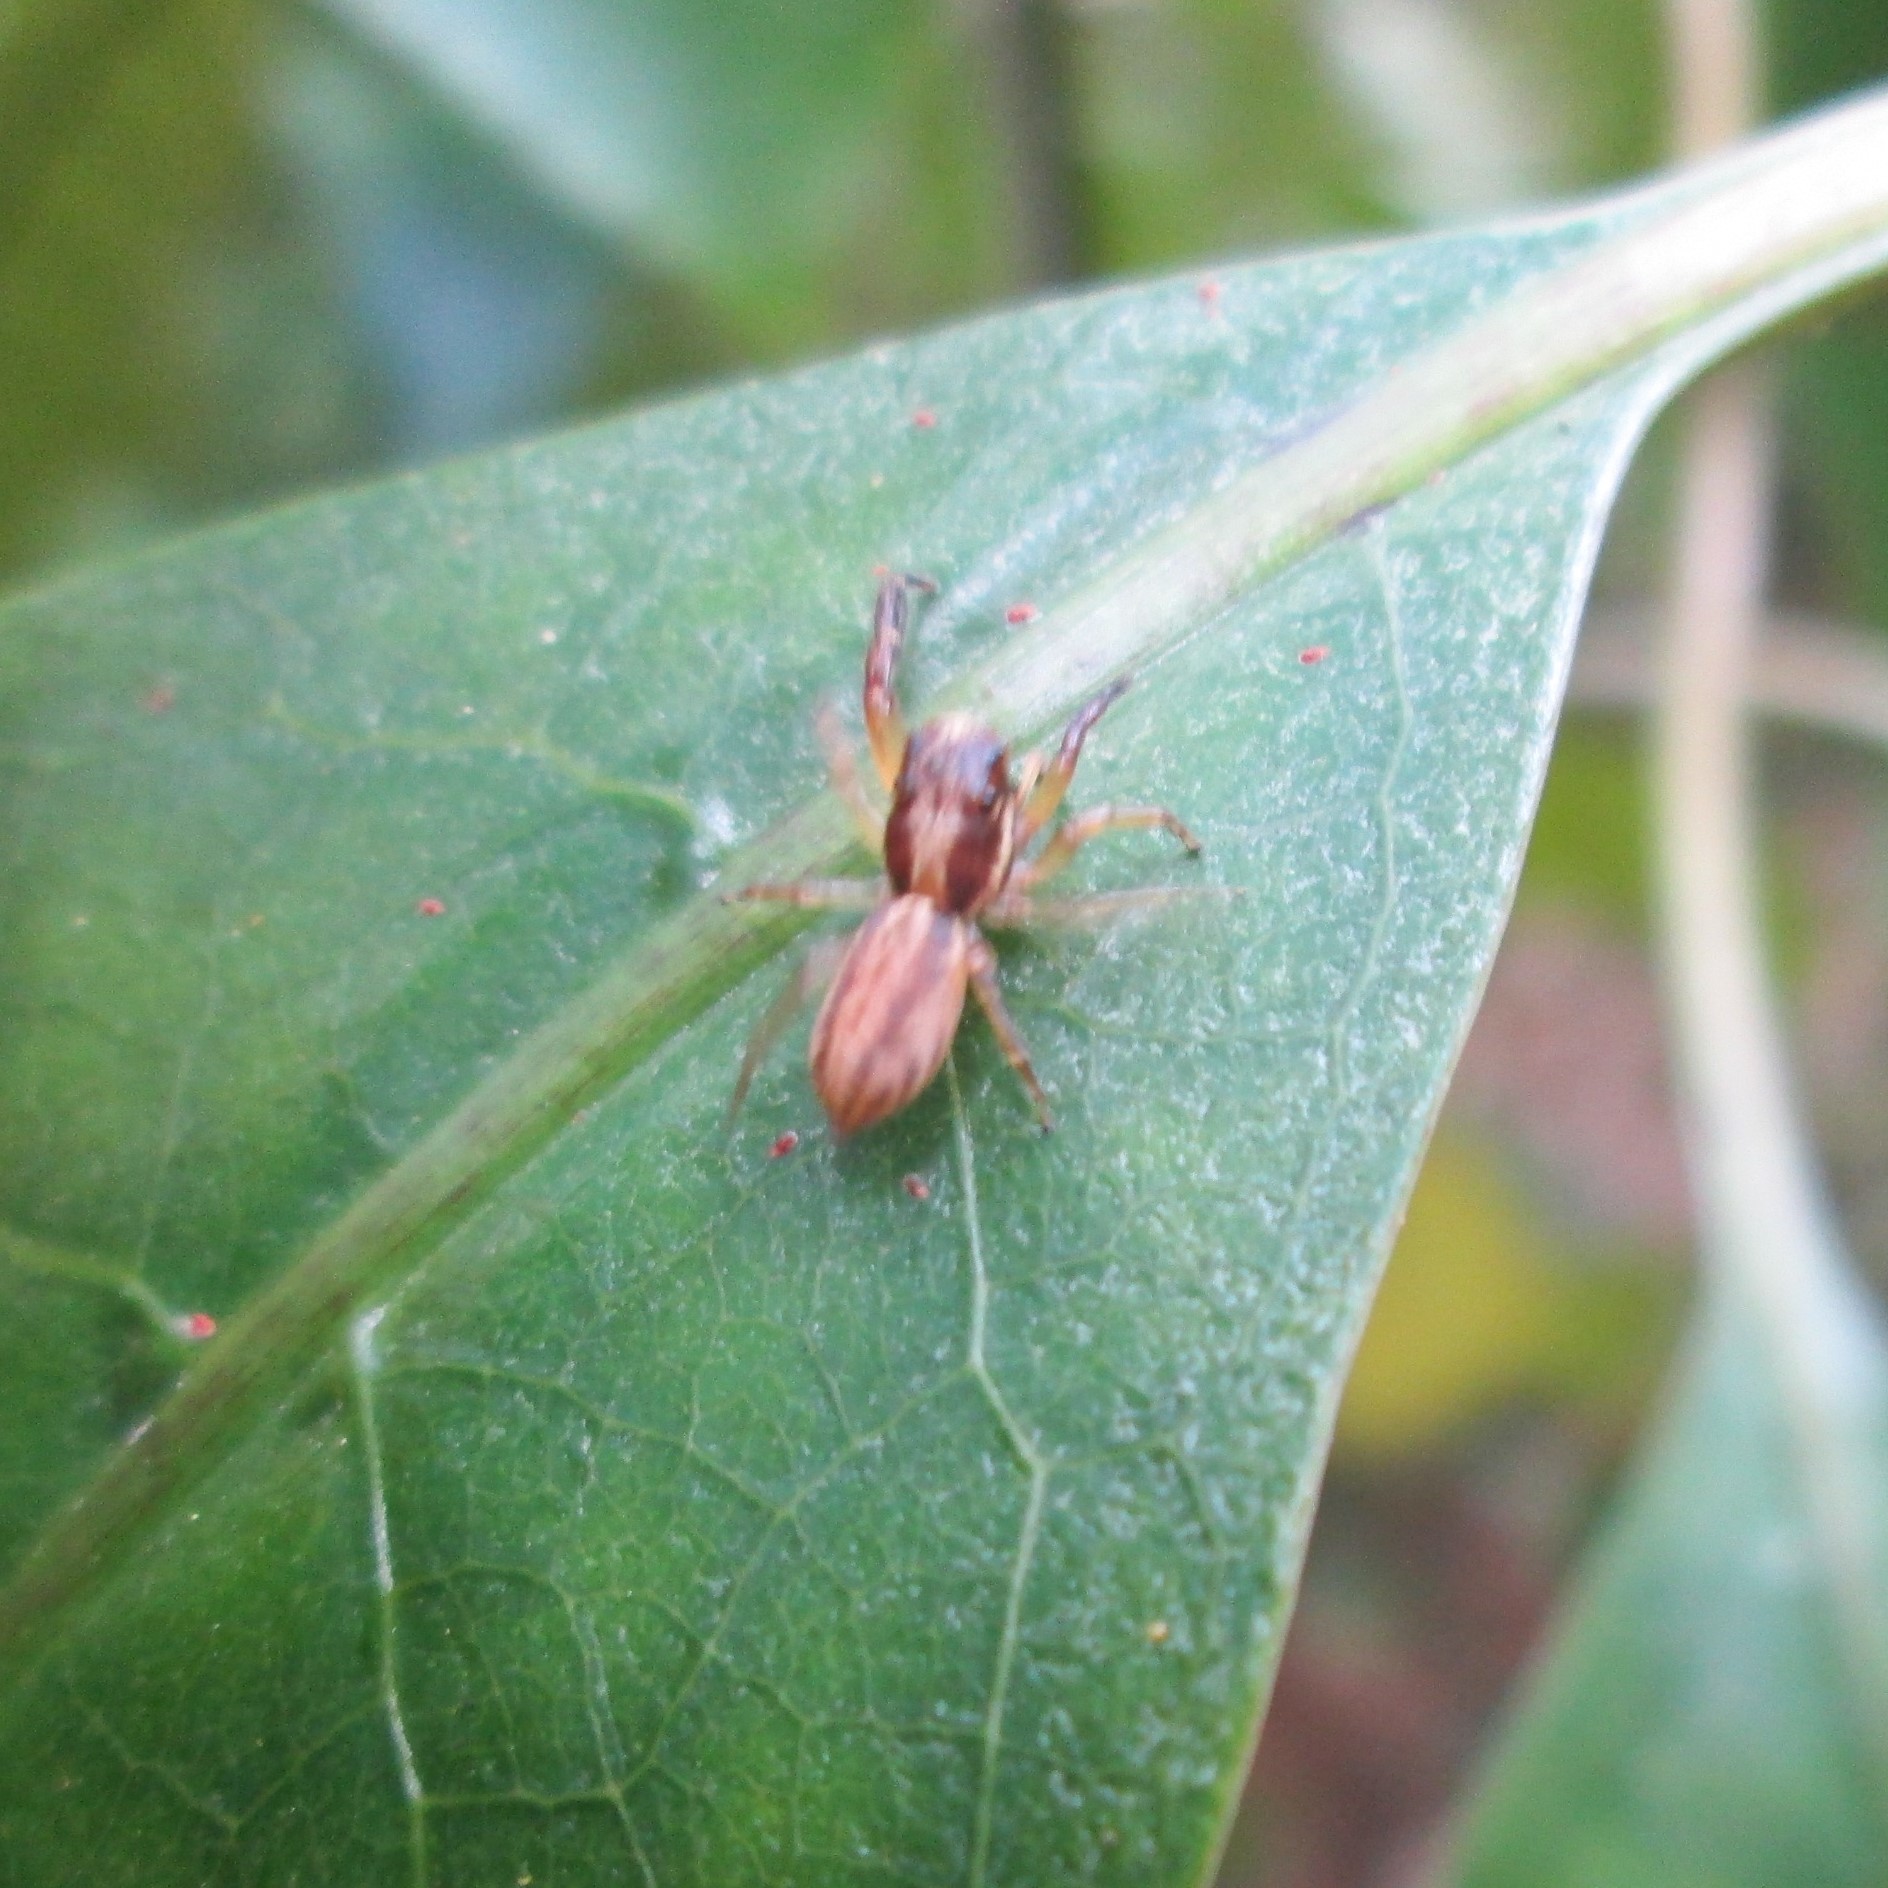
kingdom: Animalia
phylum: Arthropoda
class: Arachnida
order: Araneae
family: Salticidae
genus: Trite
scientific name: Trite mustilina
